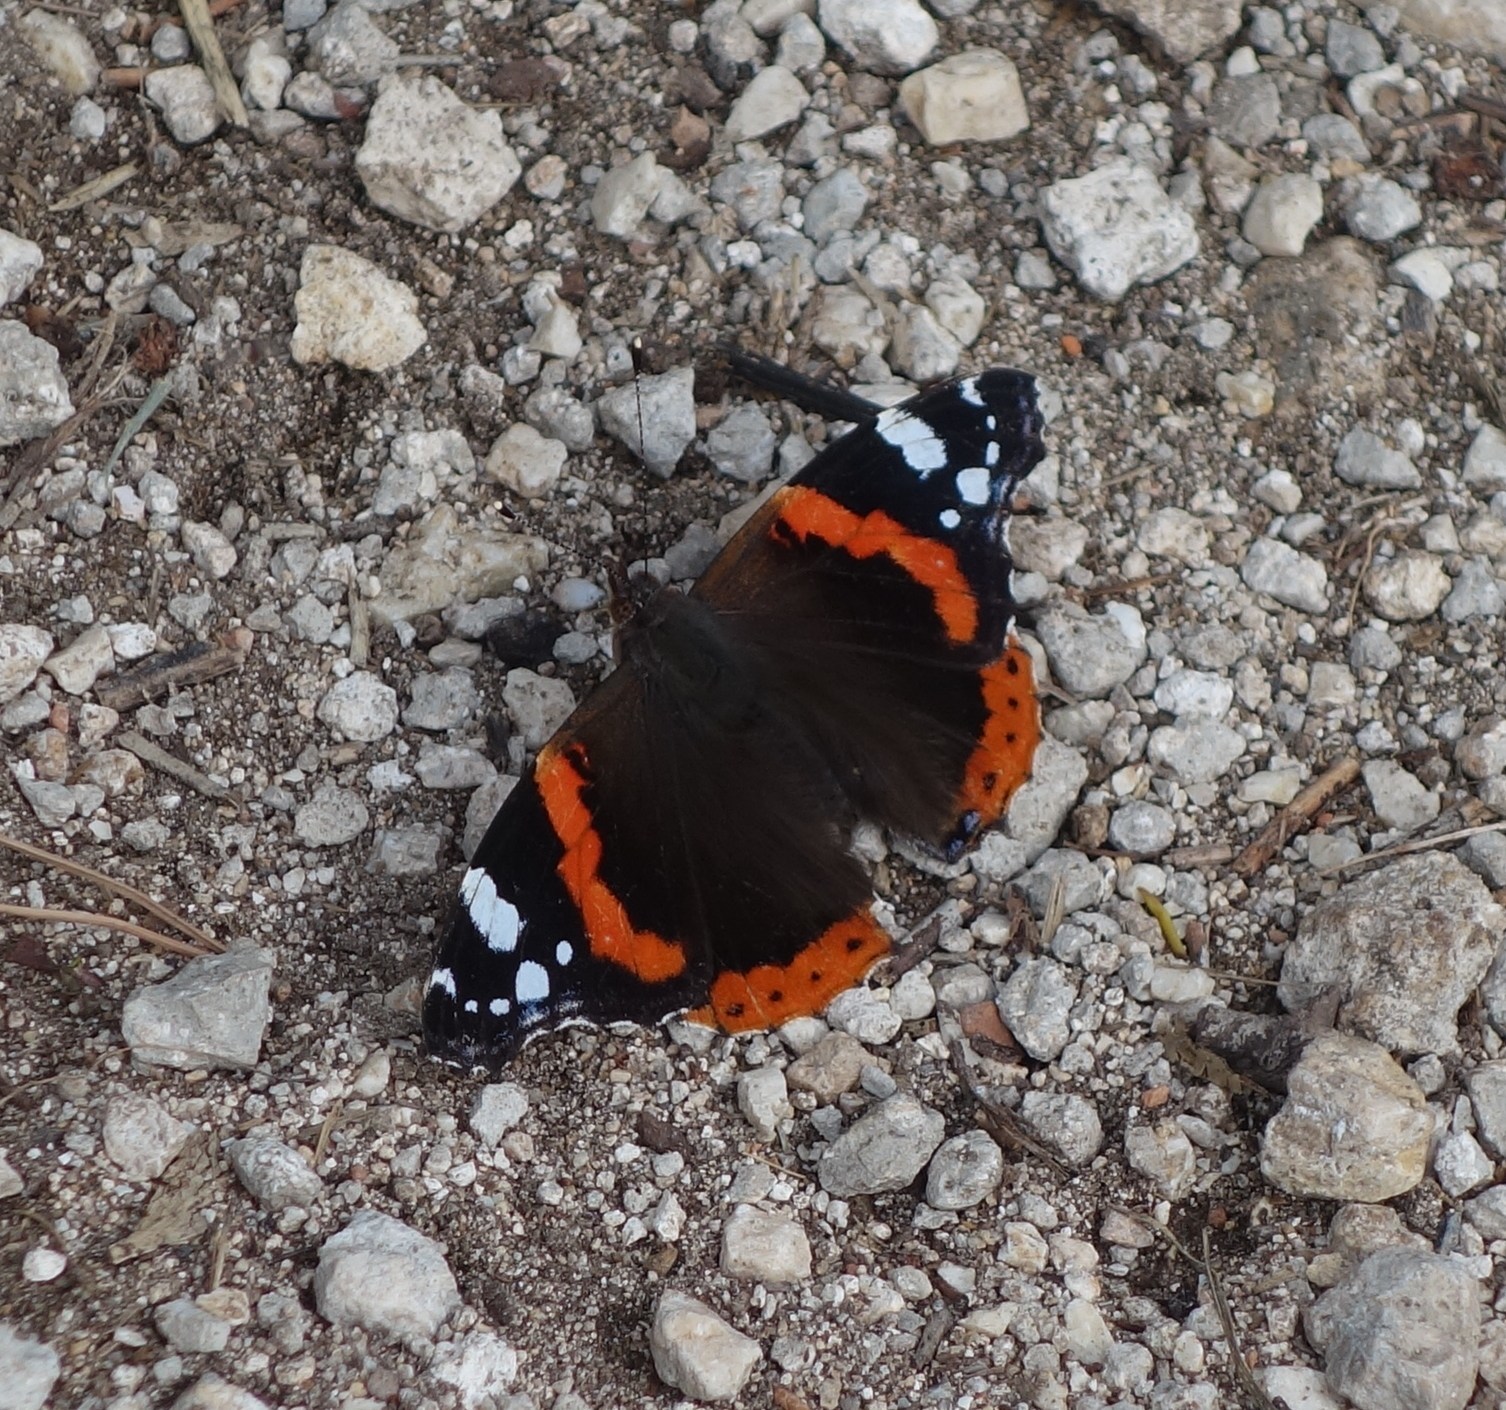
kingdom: Animalia
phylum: Arthropoda
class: Insecta
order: Lepidoptera
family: Nymphalidae
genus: Vanessa
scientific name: Vanessa atalanta
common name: Red admiral
